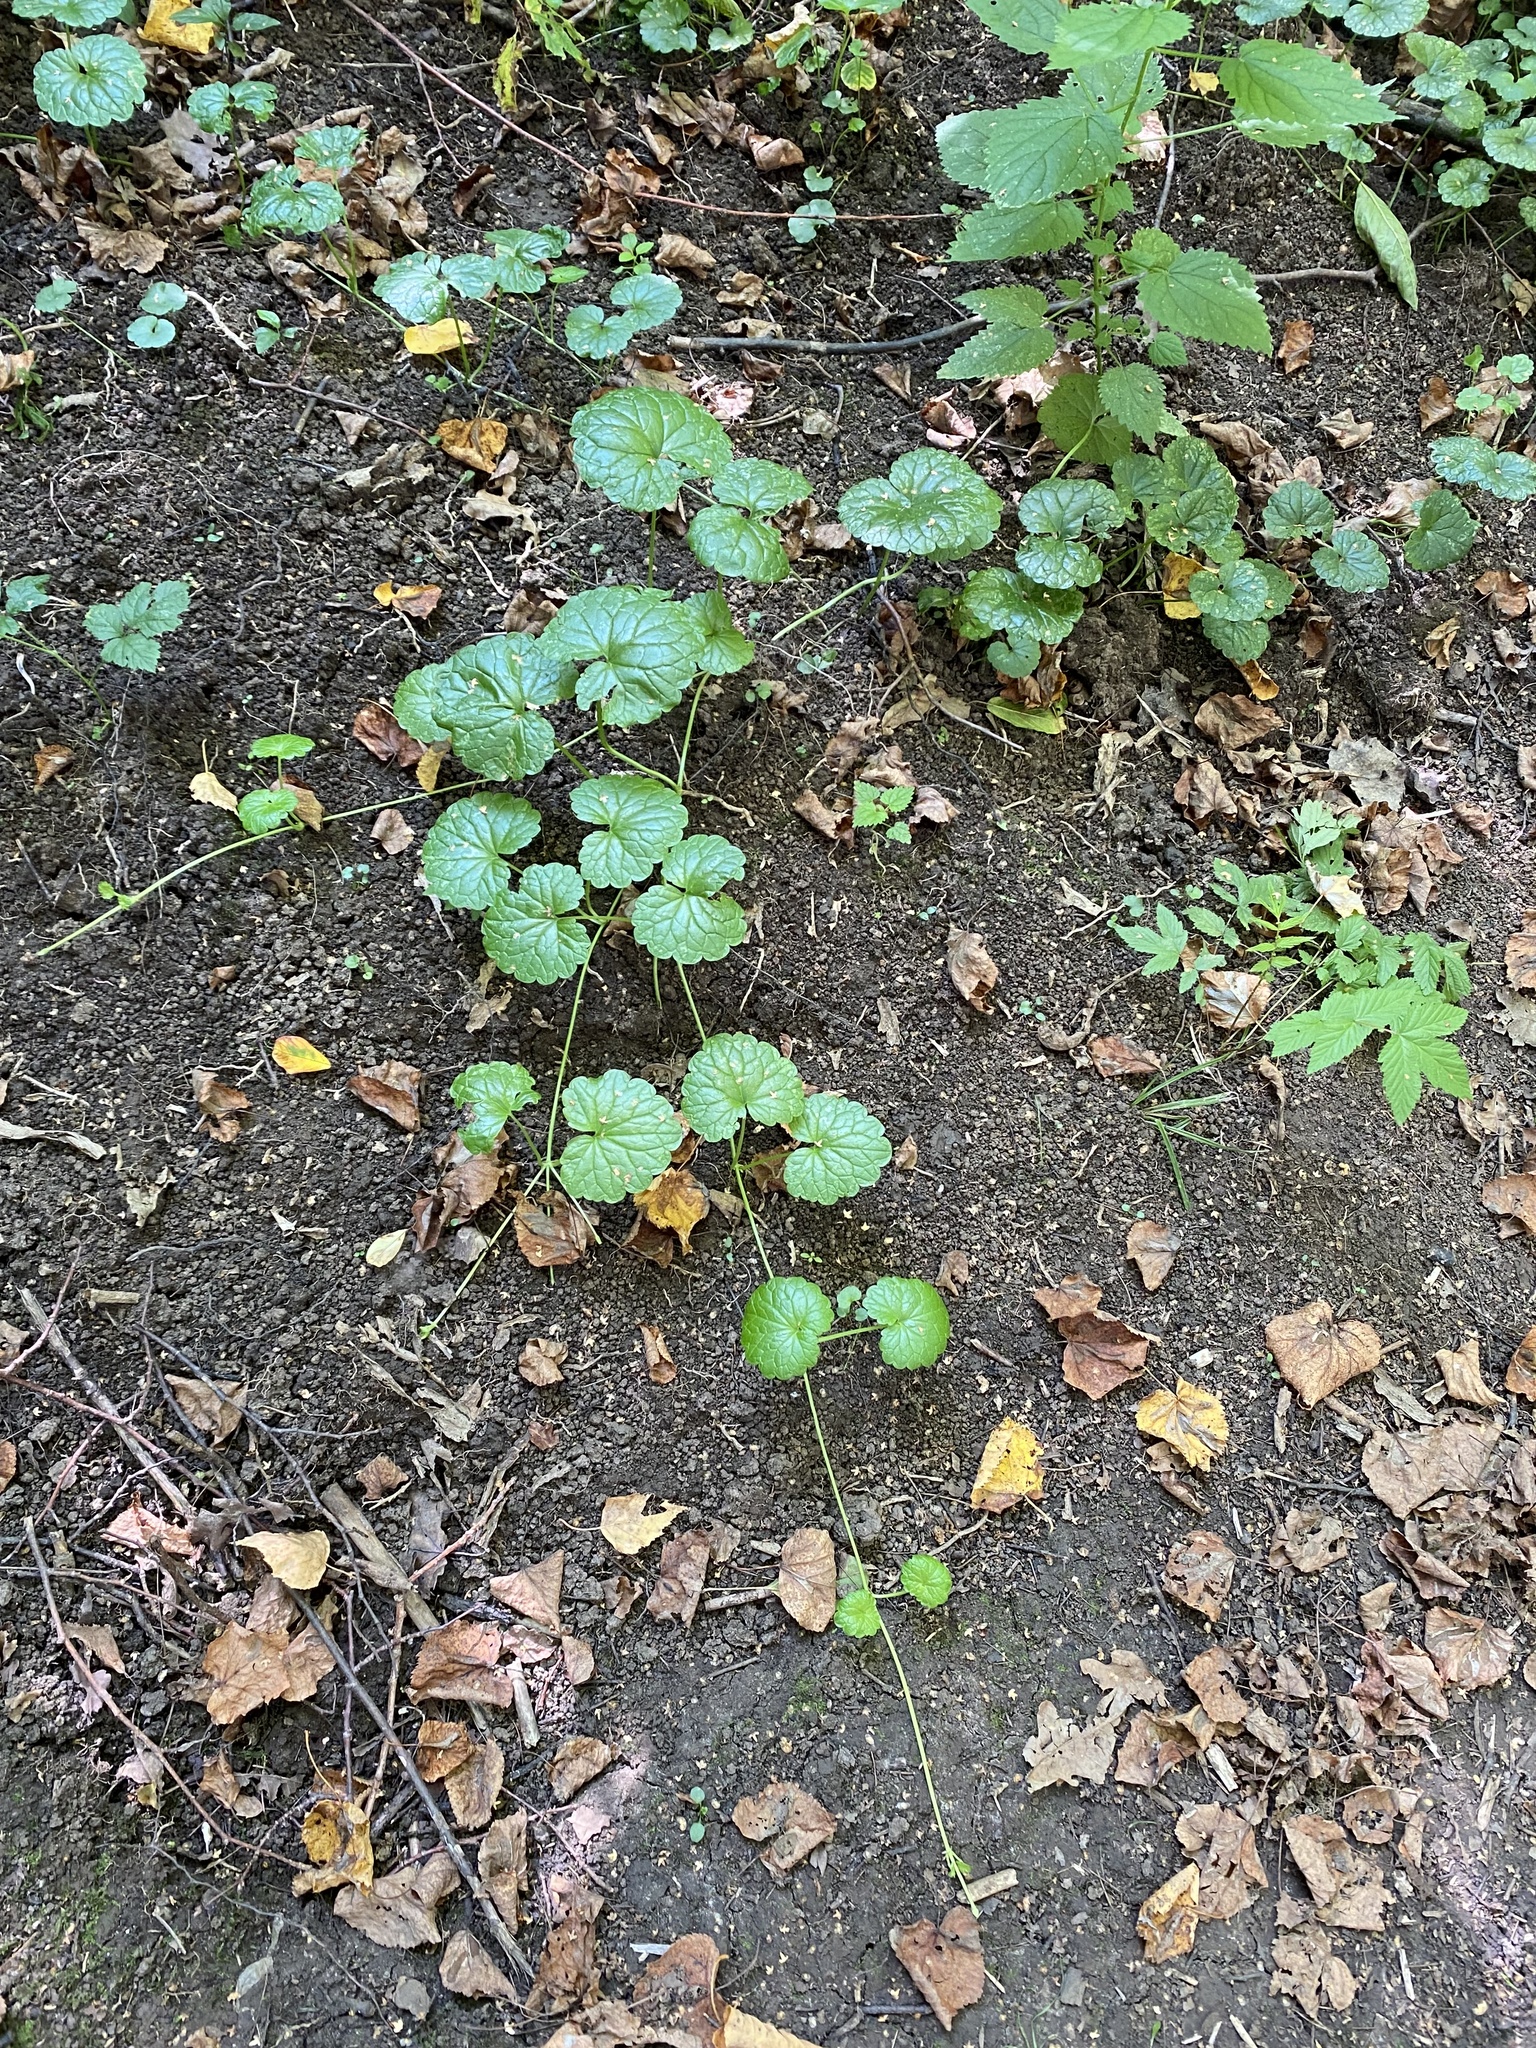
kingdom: Plantae
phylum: Tracheophyta
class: Magnoliopsida
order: Lamiales
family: Lamiaceae
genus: Glechoma
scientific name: Glechoma hederacea
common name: Ground ivy
